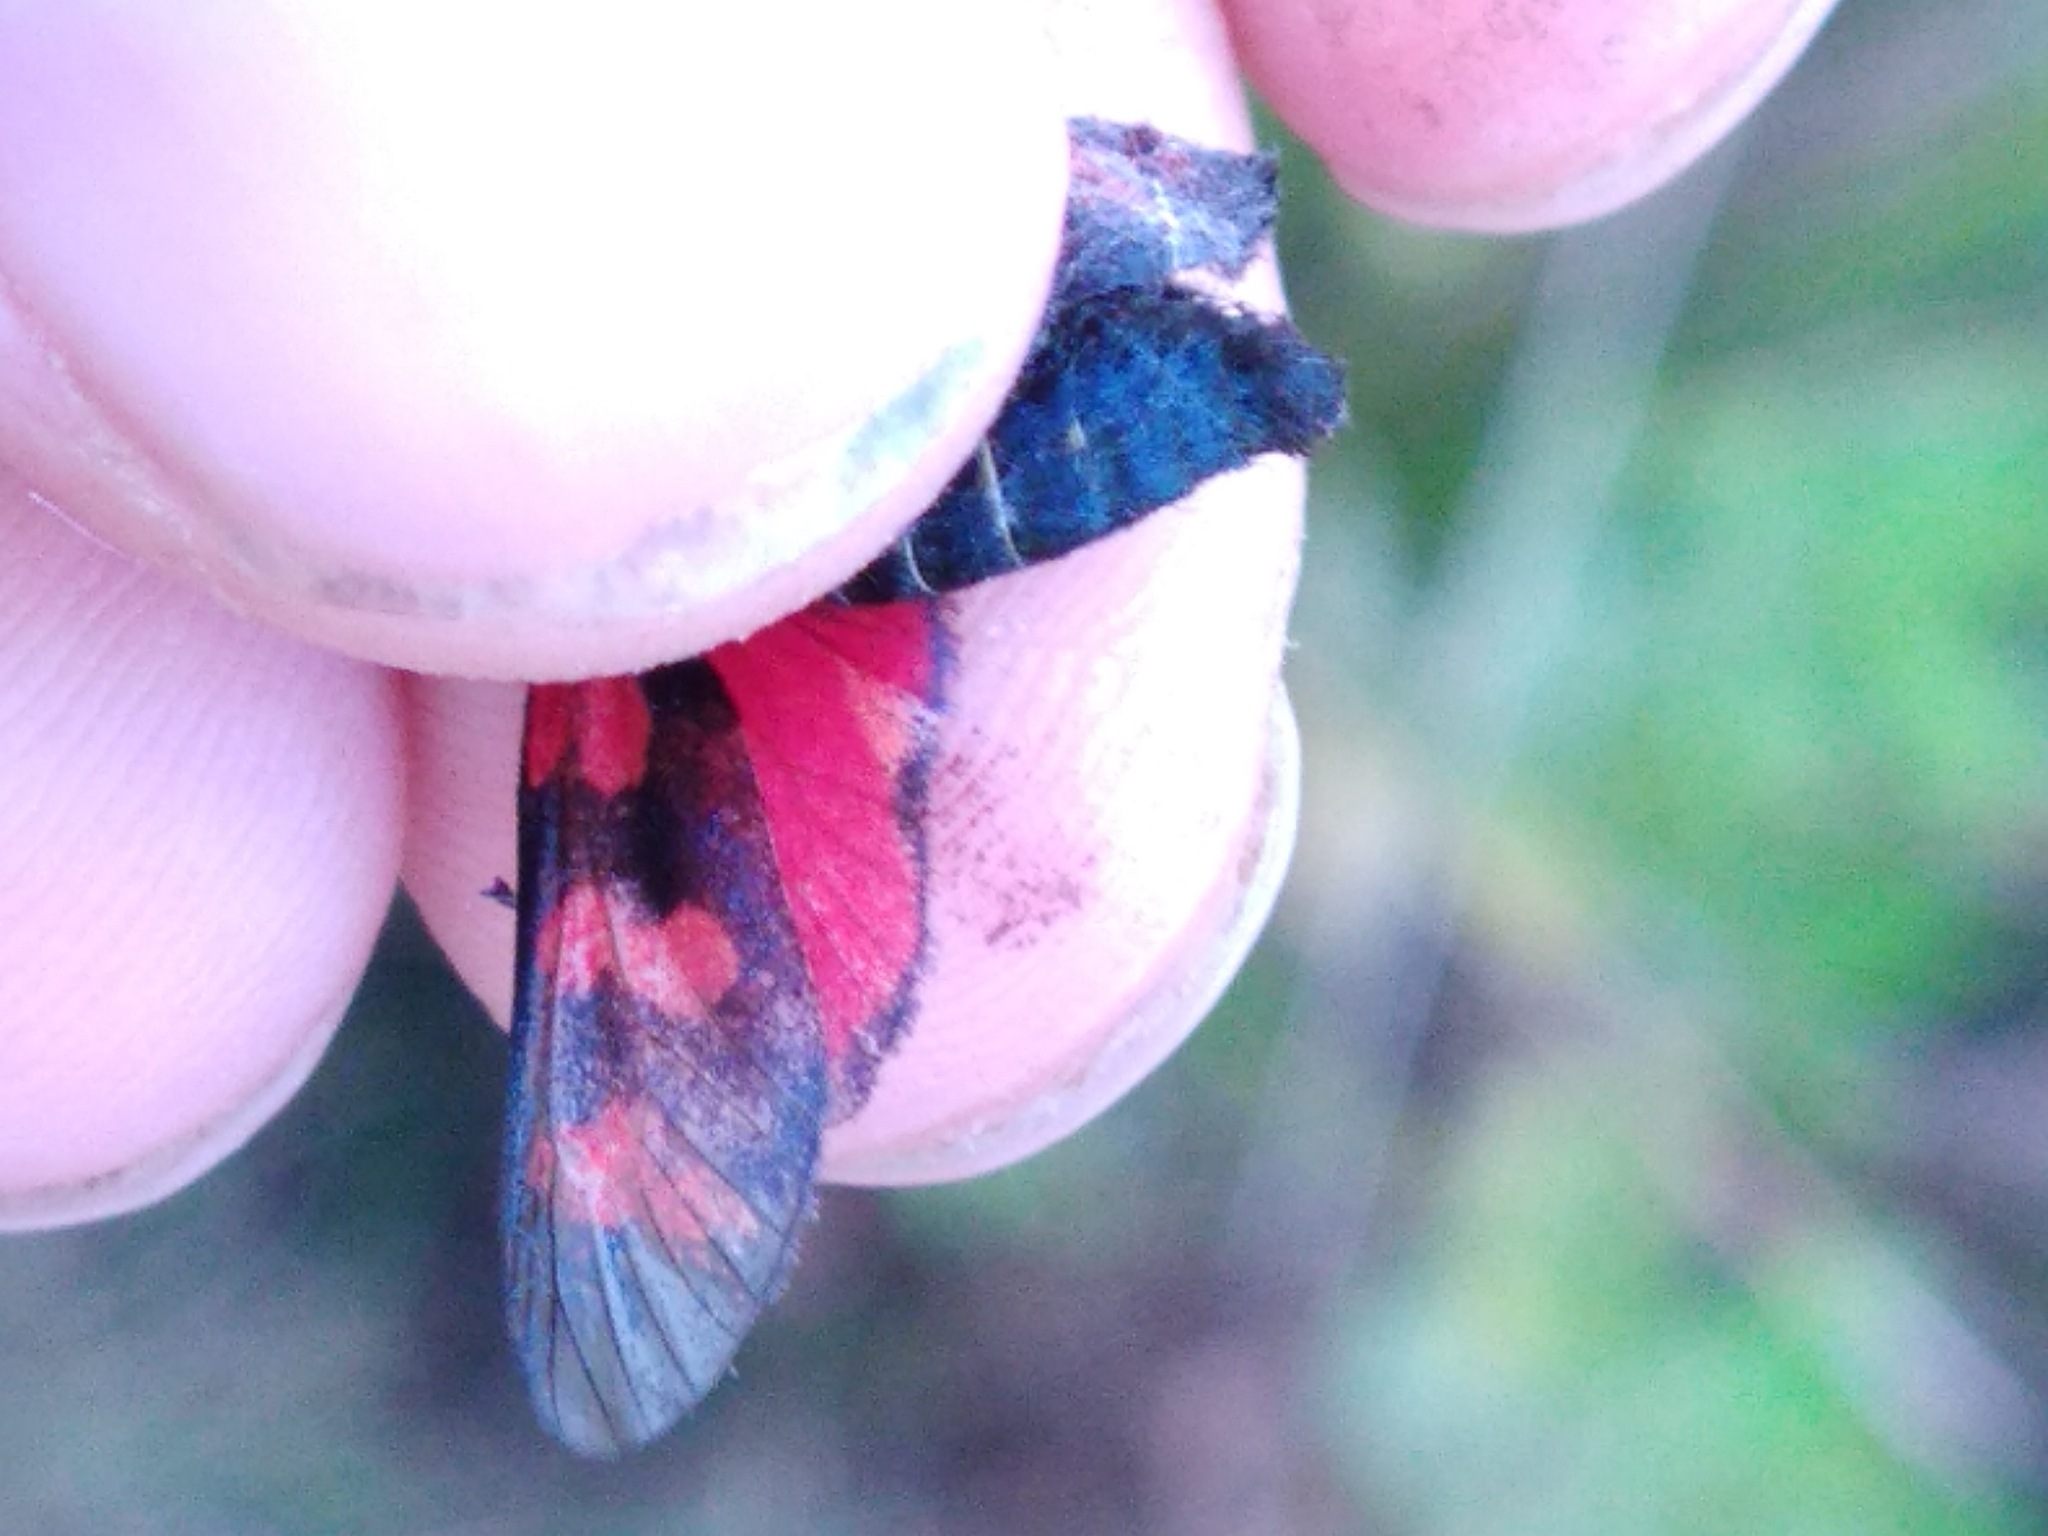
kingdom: Animalia
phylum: Arthropoda
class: Insecta
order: Lepidoptera
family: Zygaenidae
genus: Zygaena
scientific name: Zygaena filipendulae
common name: Six-spot burnet
